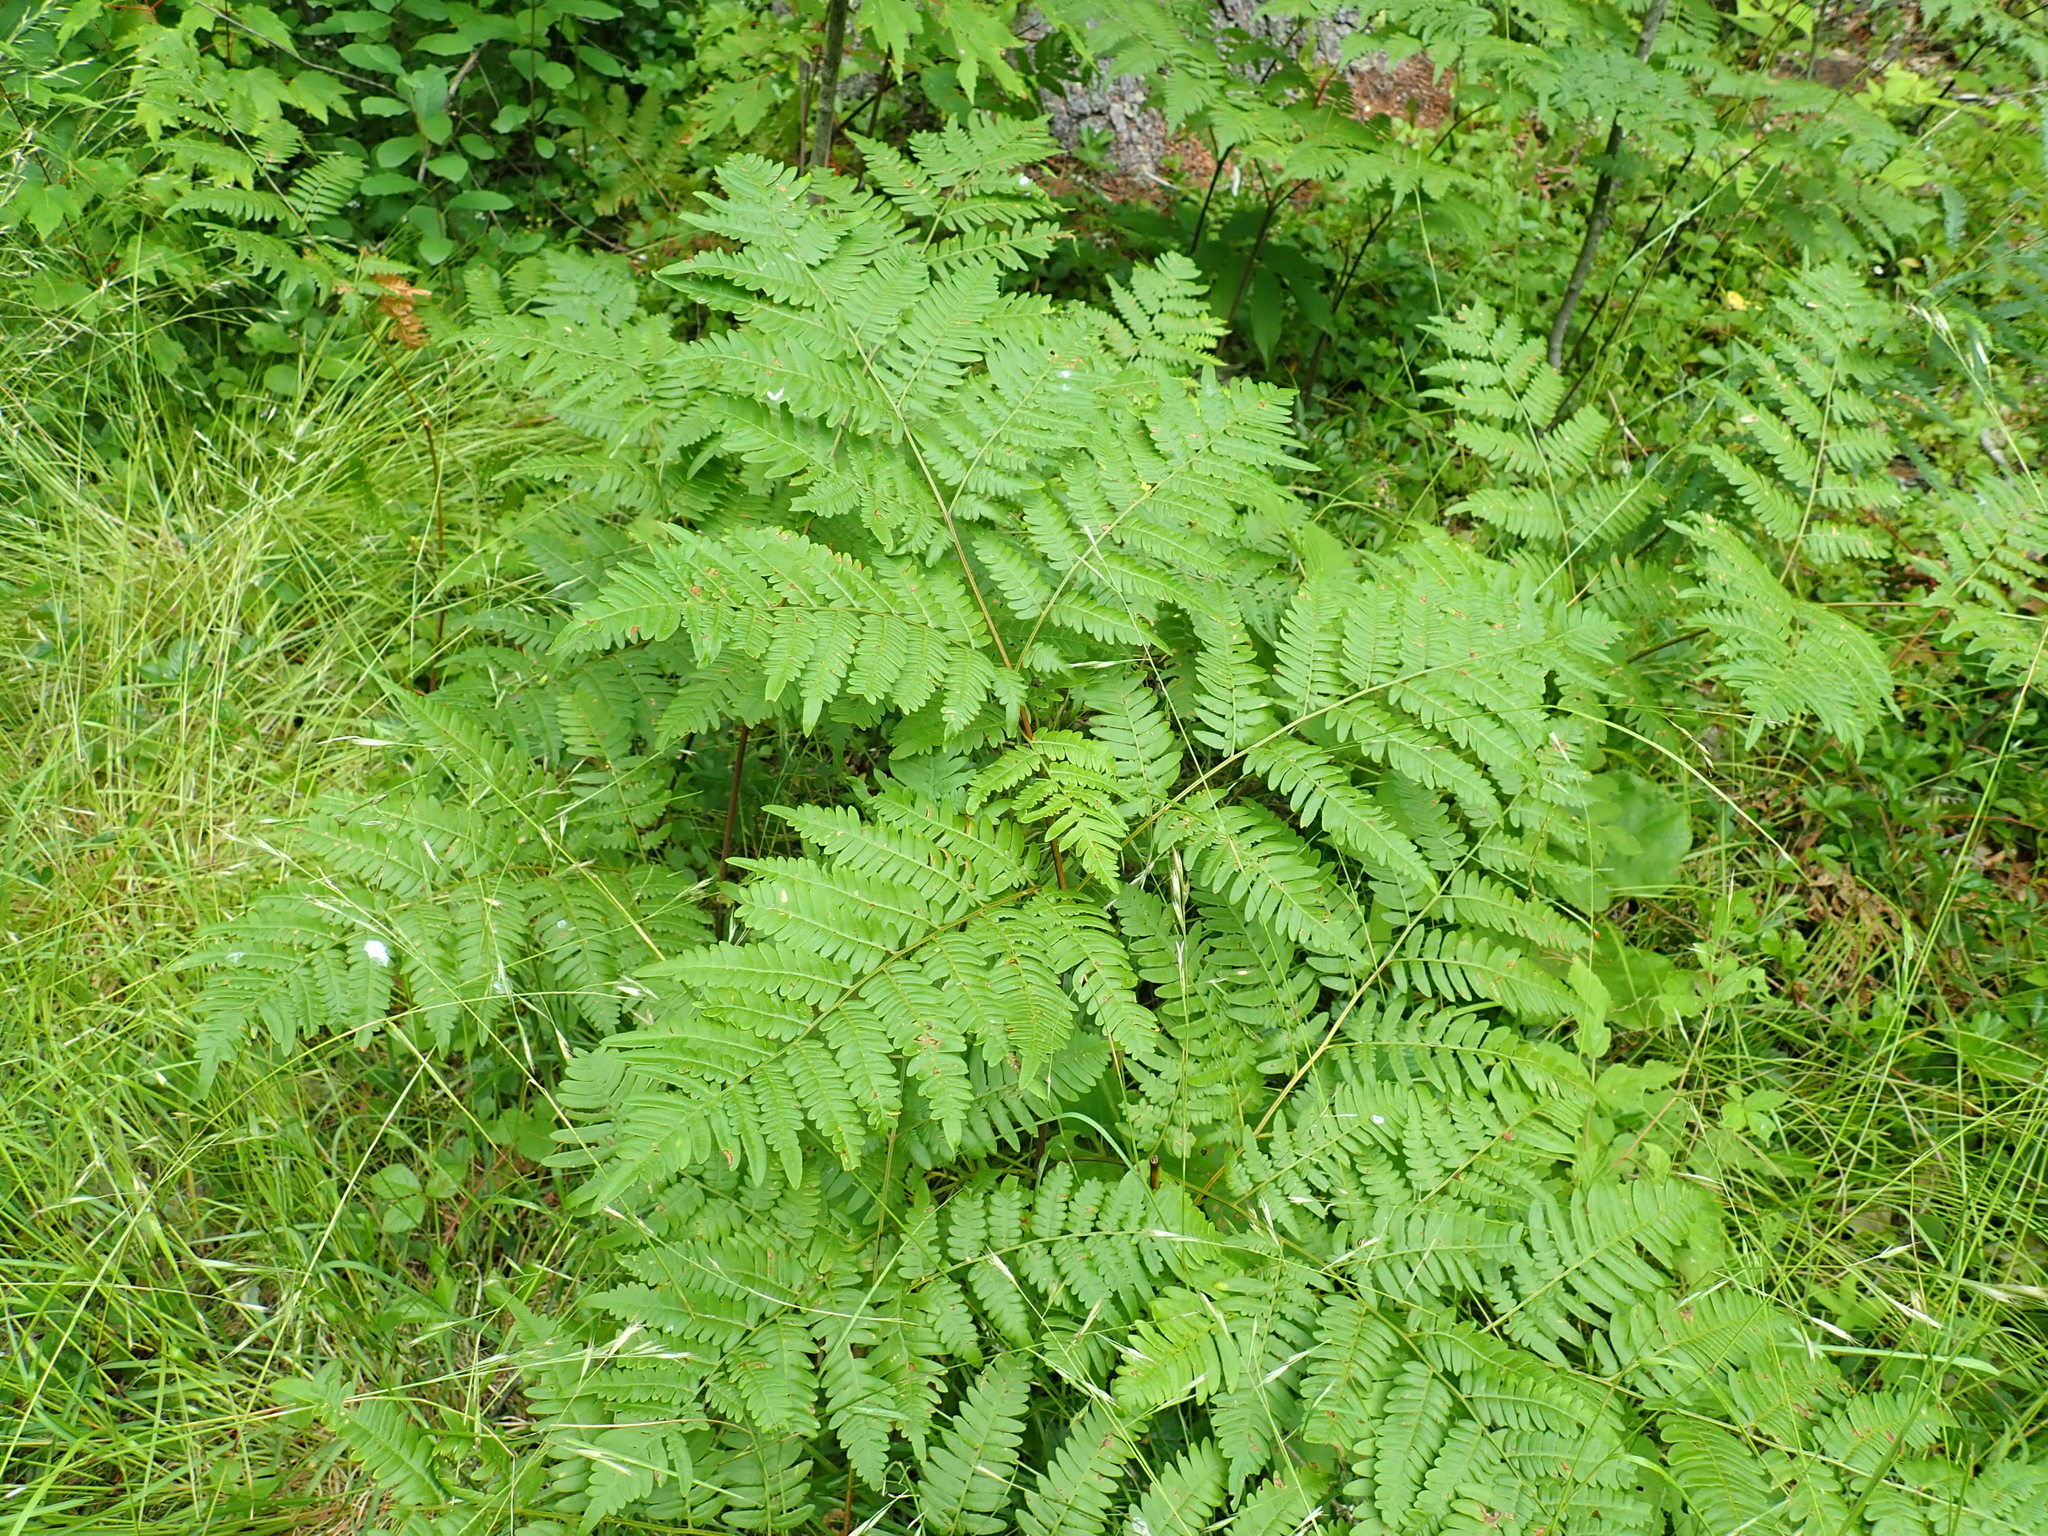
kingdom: Plantae
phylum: Tracheophyta
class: Polypodiopsida
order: Polypodiales
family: Dennstaedtiaceae
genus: Pteridium
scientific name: Pteridium aquilinum
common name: Bracken
